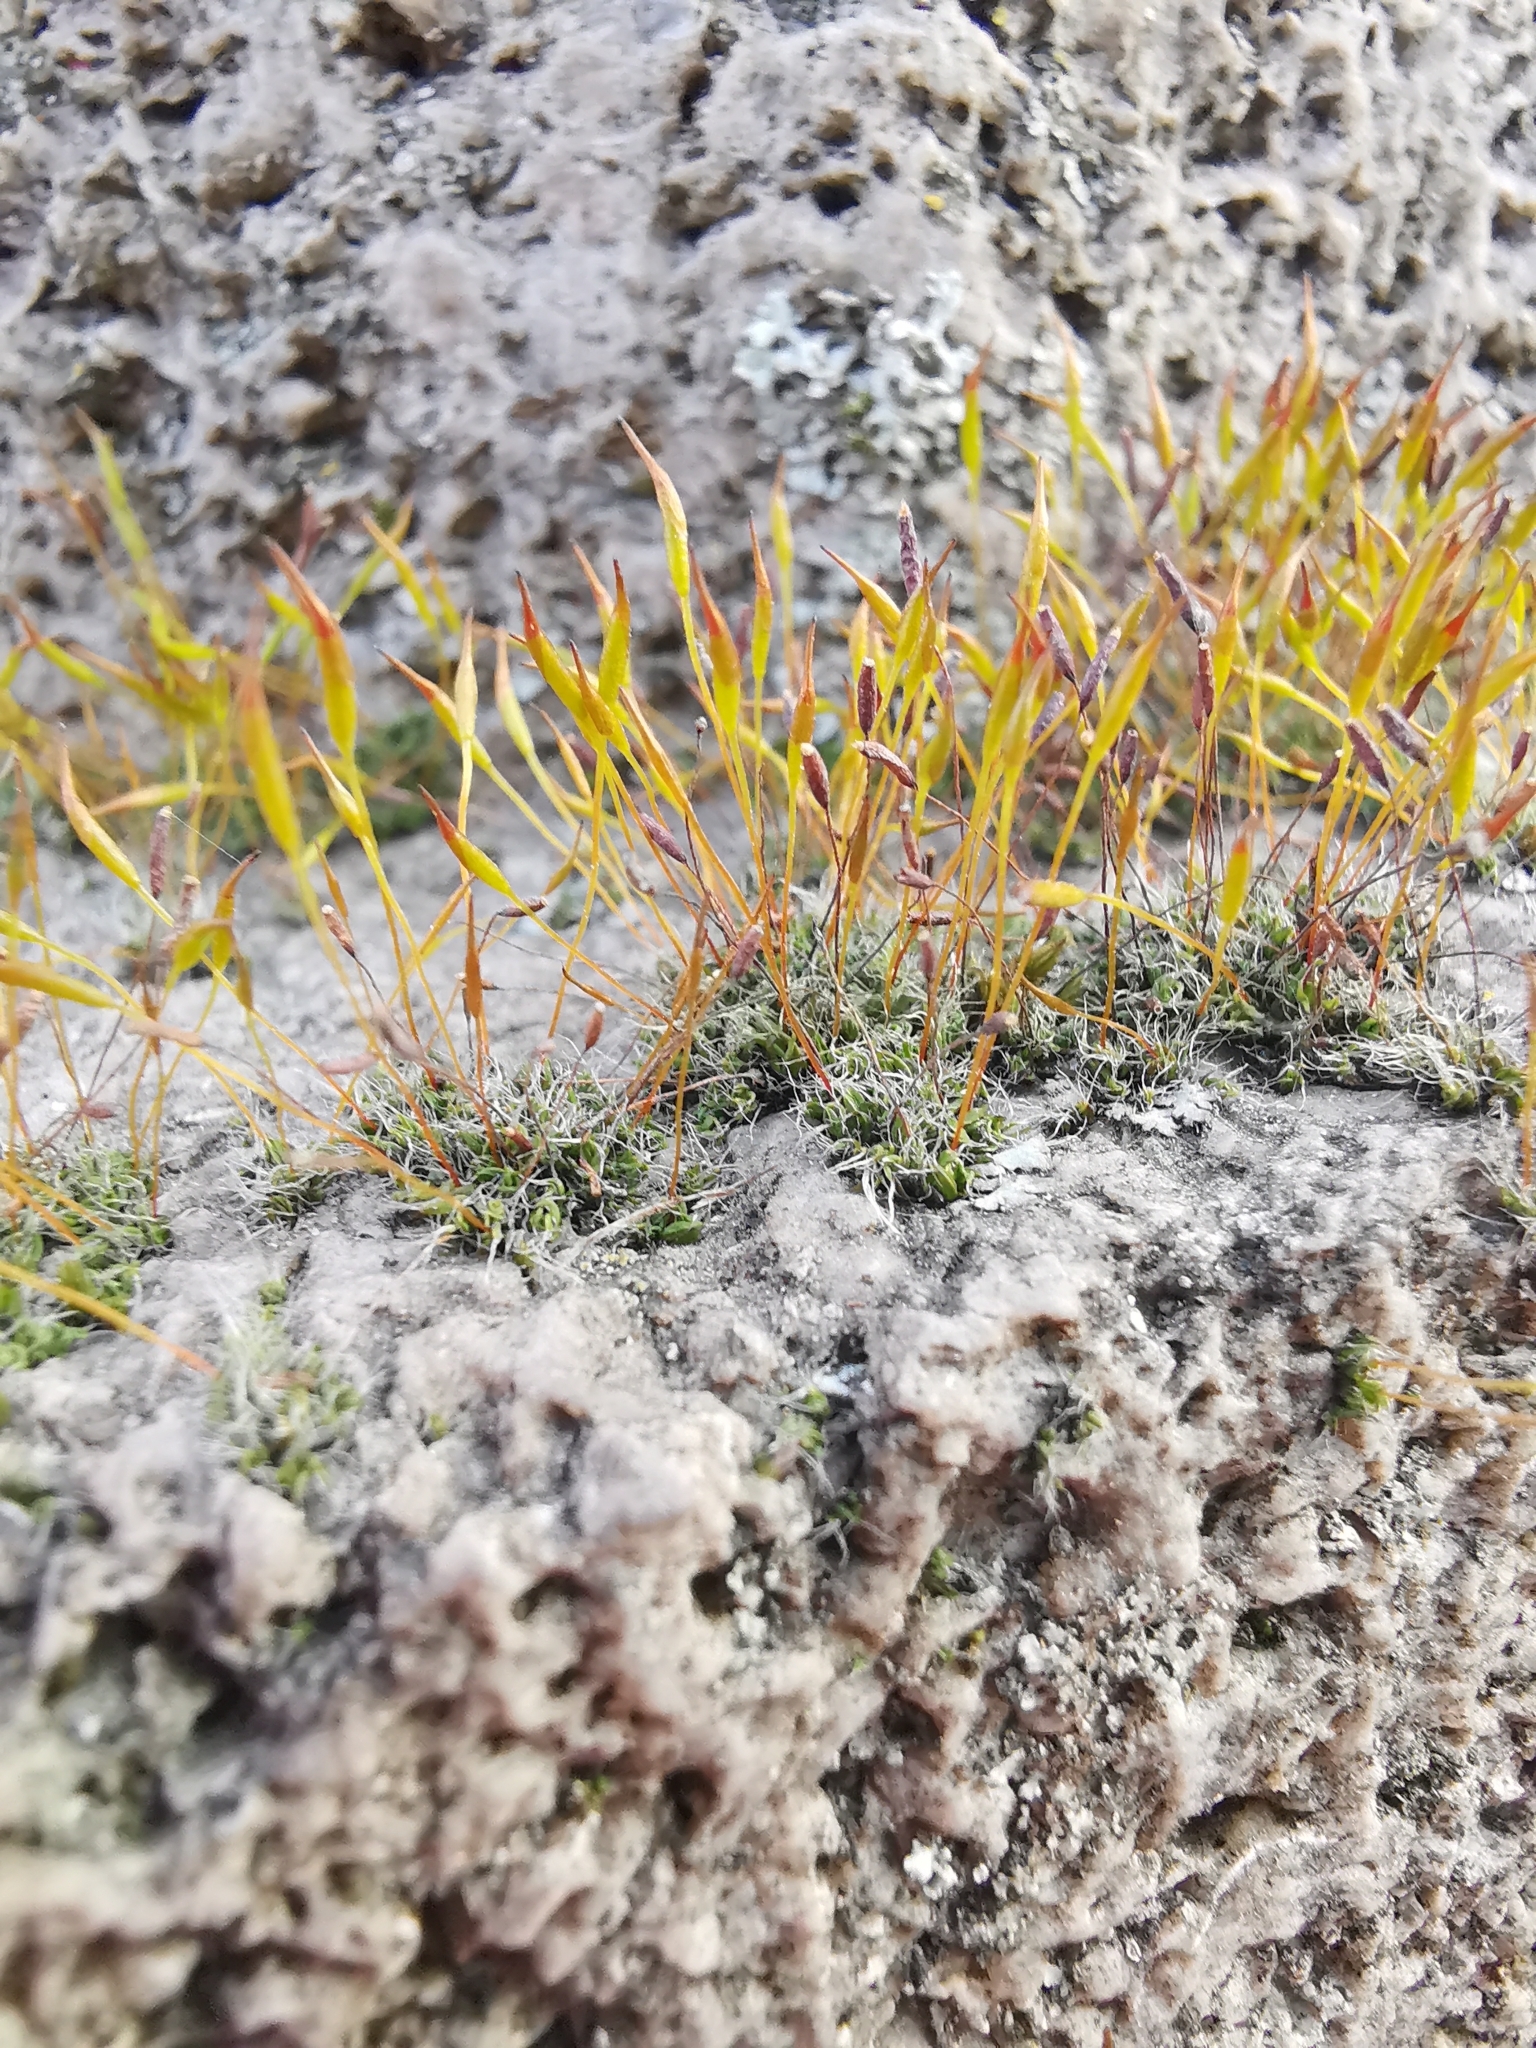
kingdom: Plantae
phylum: Bryophyta
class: Bryopsida
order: Pottiales
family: Pottiaceae
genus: Tortula
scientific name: Tortula muralis
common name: Wall screw-moss
